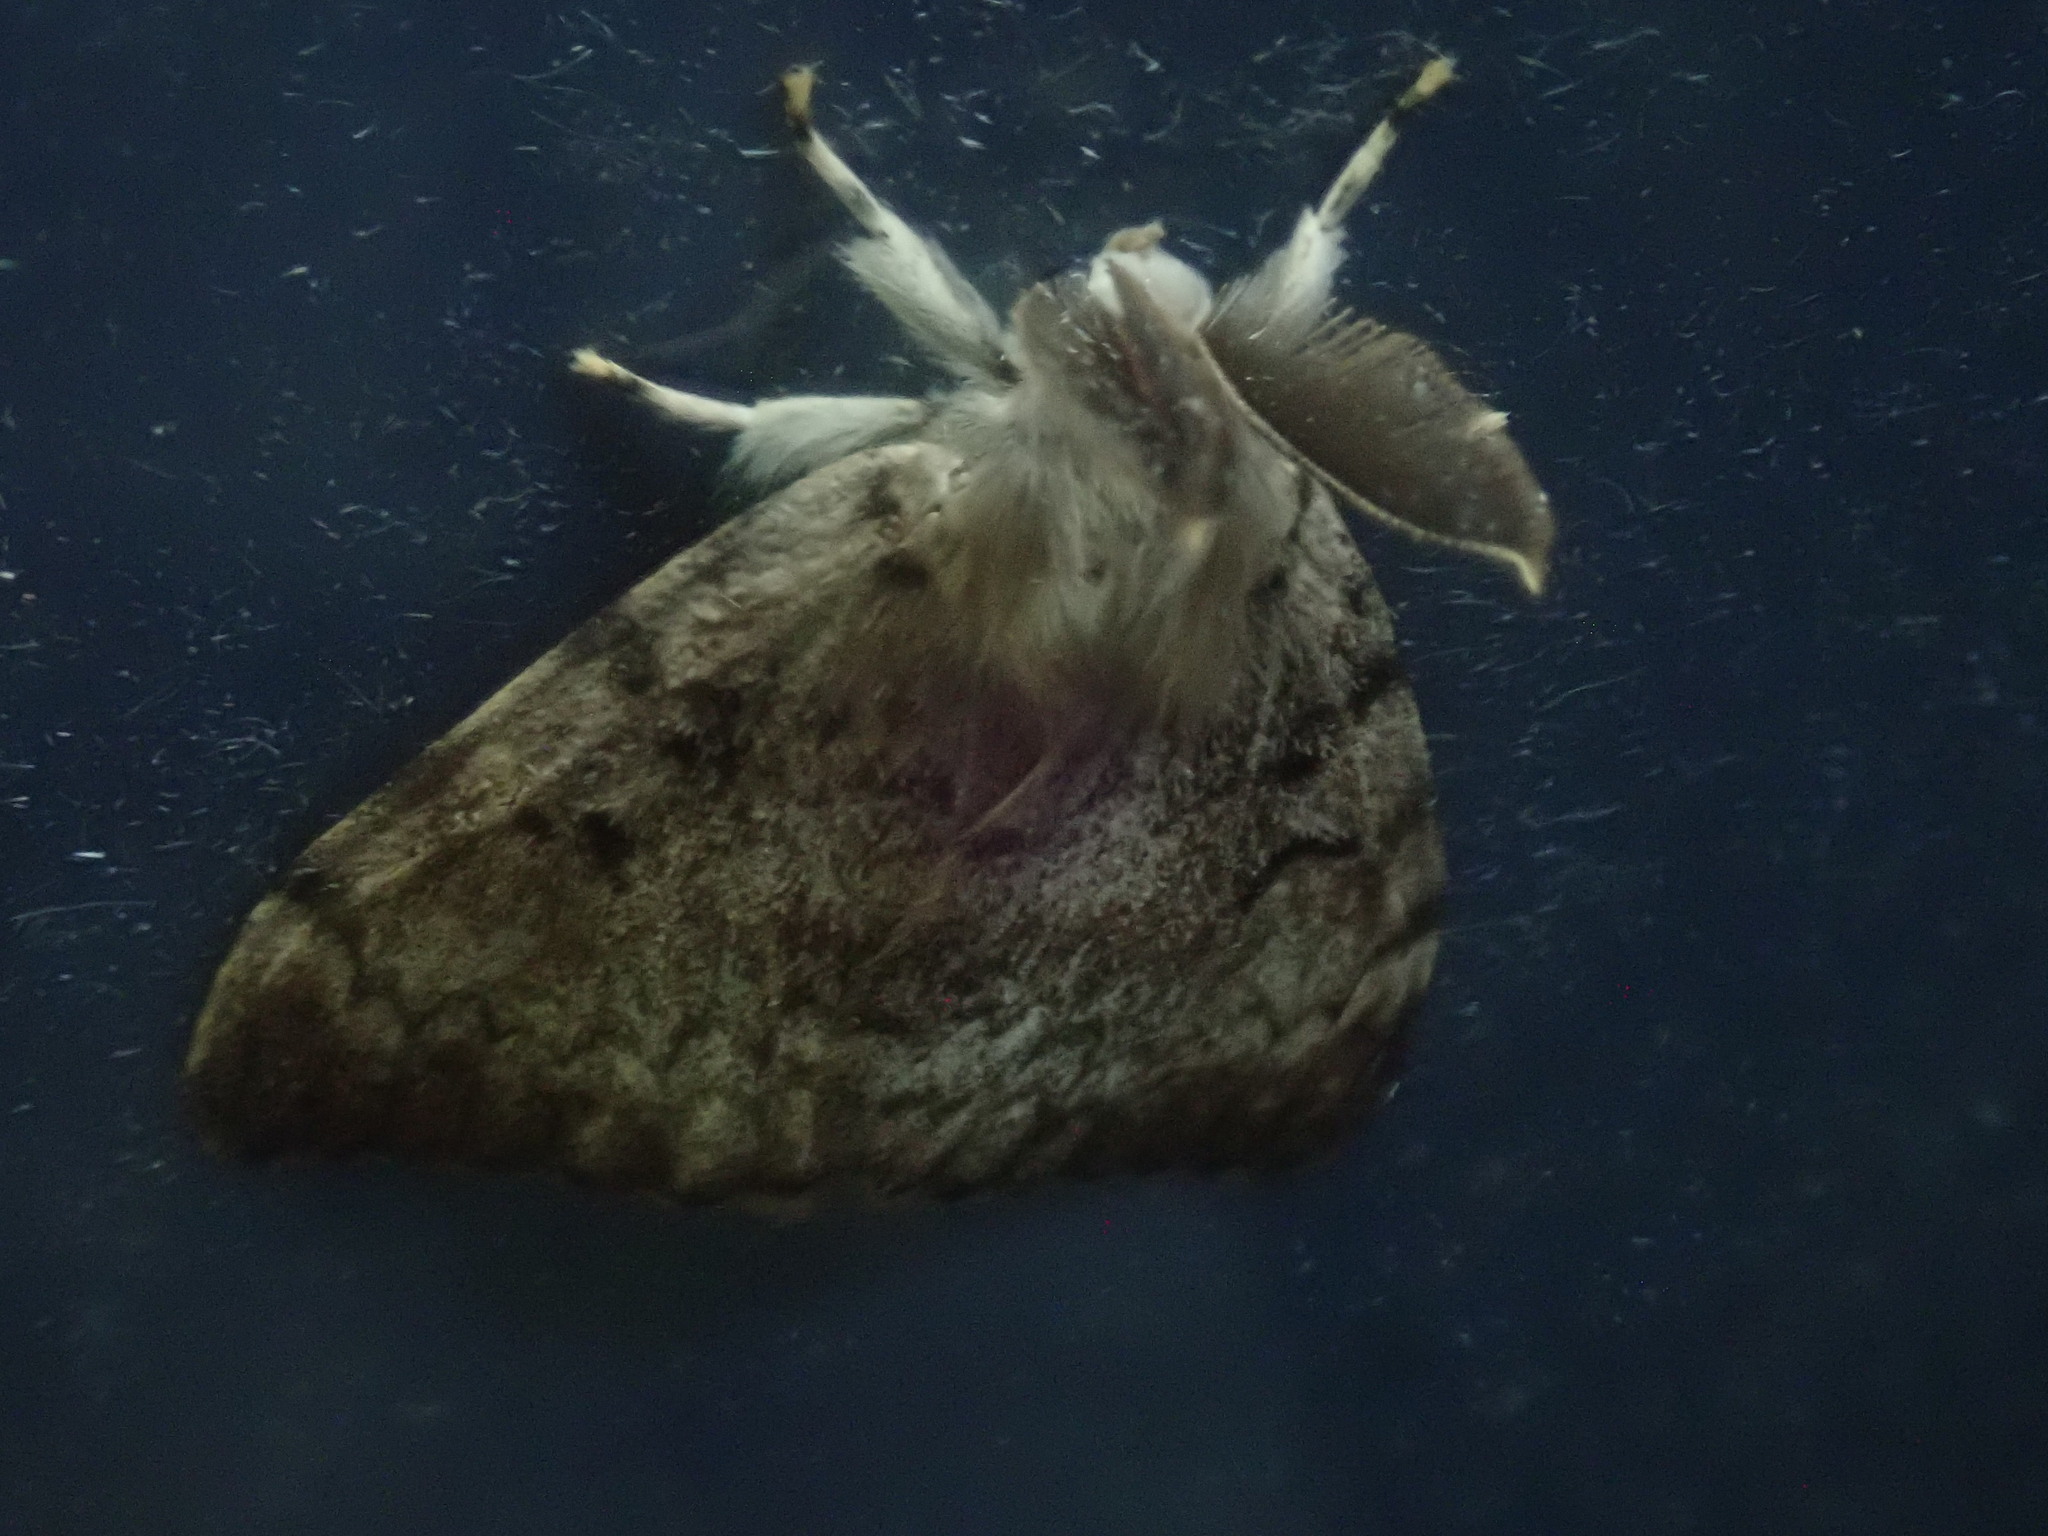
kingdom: Animalia
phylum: Arthropoda
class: Insecta
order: Lepidoptera
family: Erebidae
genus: Lymantria
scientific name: Lymantria dispar
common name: Gypsy moth
